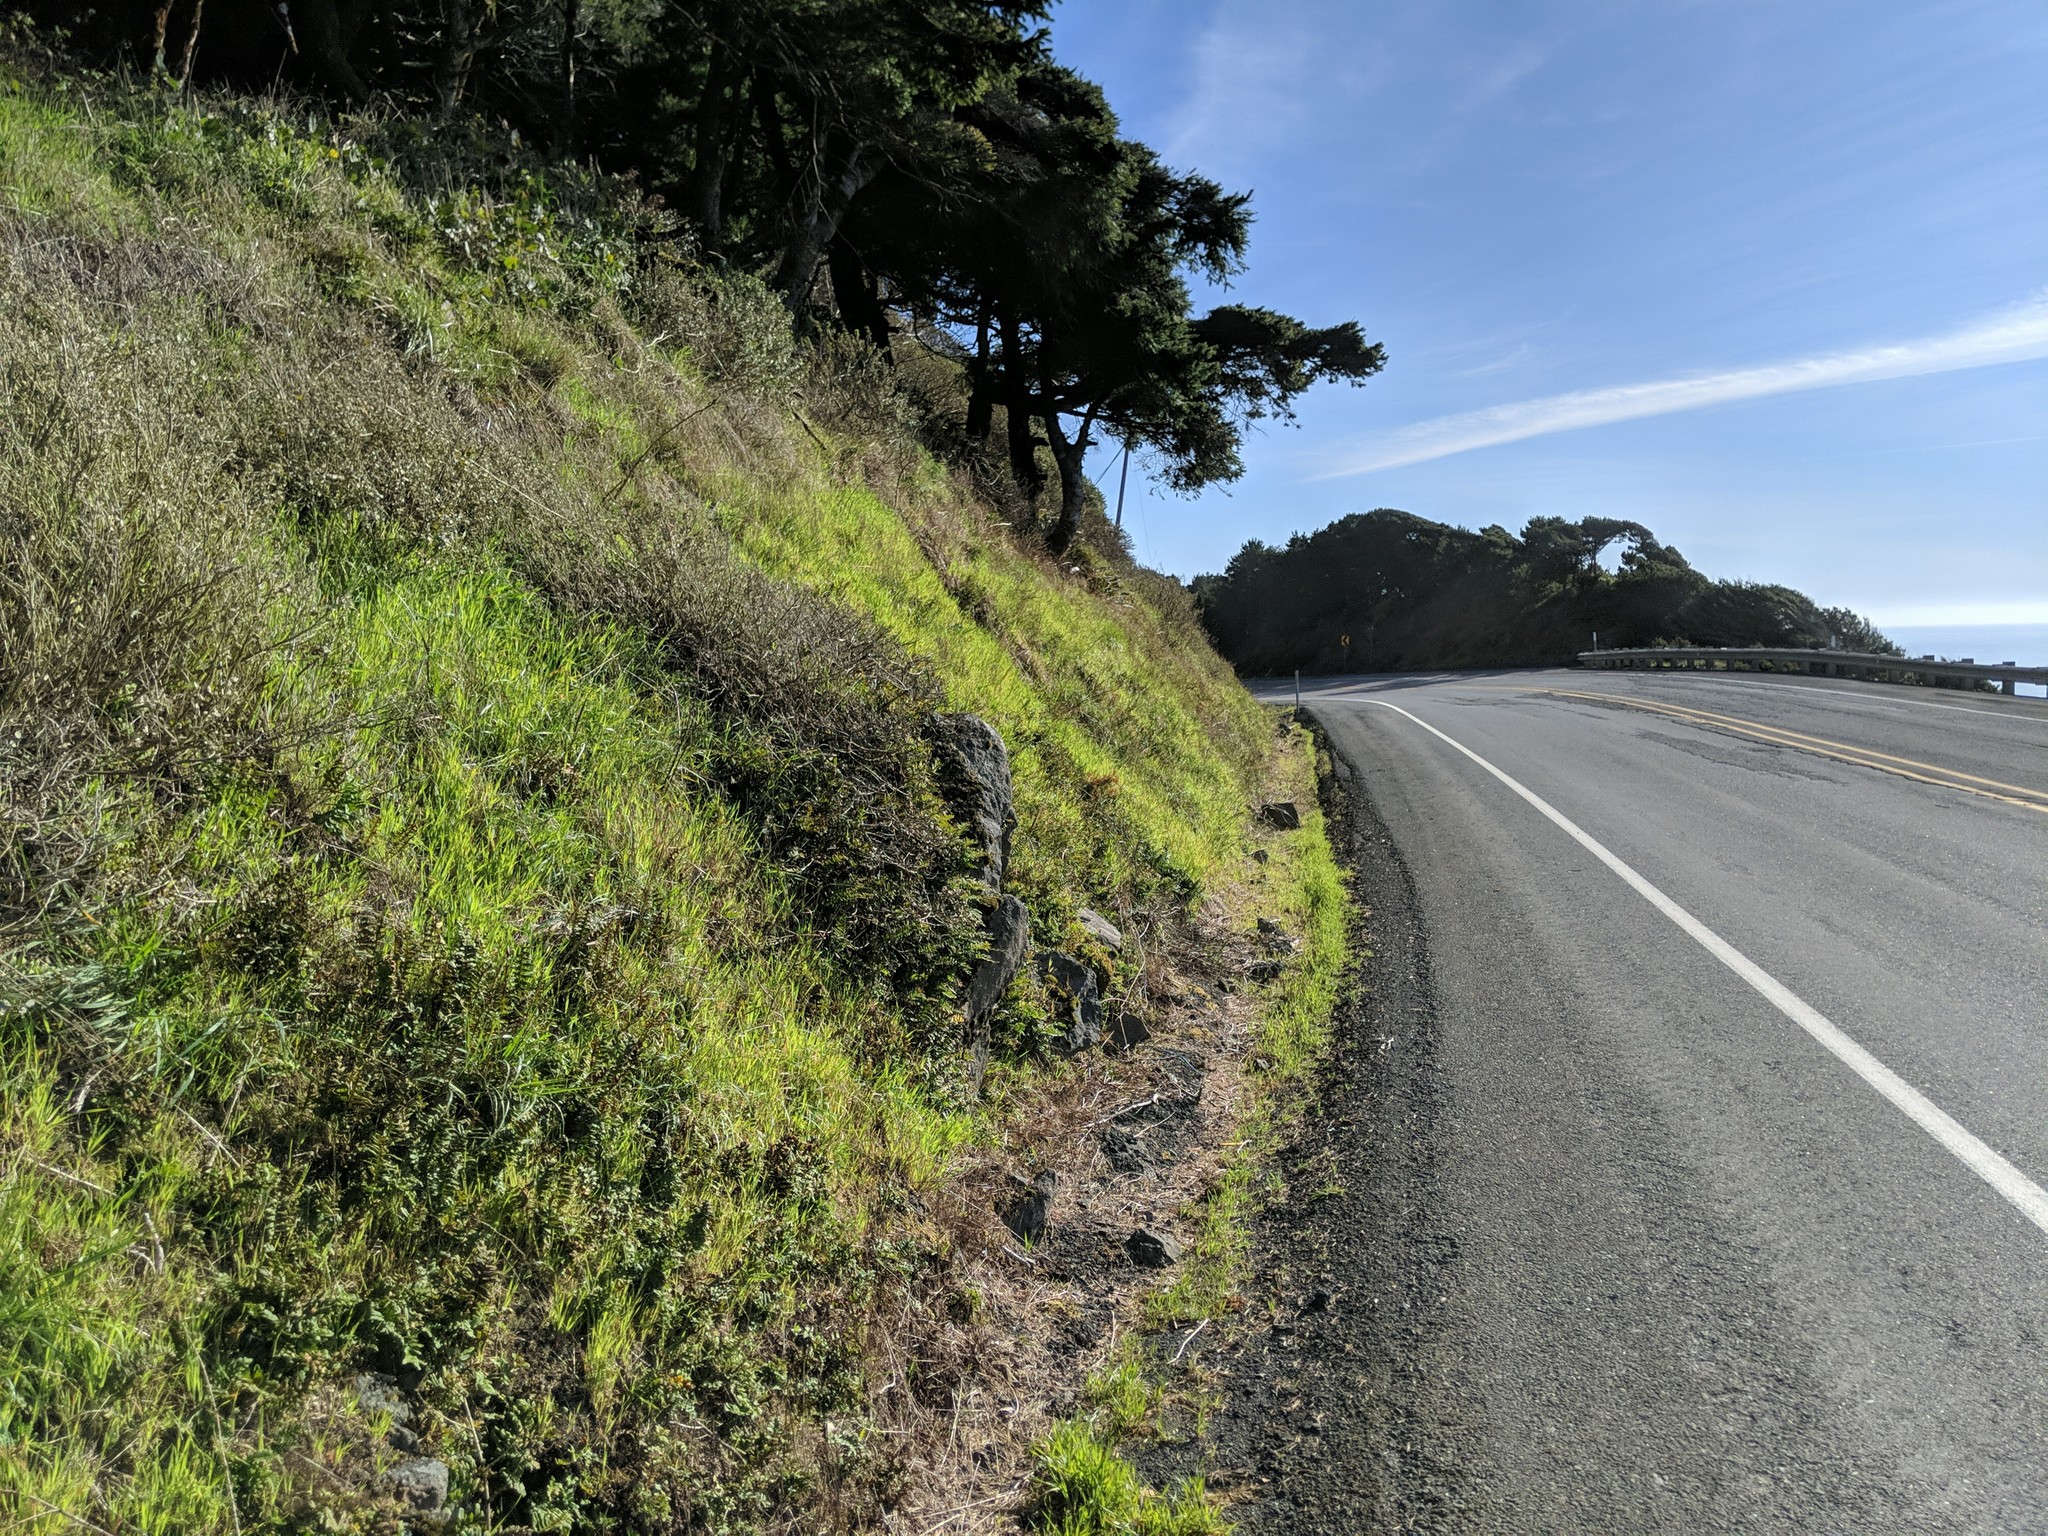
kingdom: Plantae
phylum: Tracheophyta
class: Polypodiopsida
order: Polypodiales
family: Polypodiaceae
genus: Polypodium
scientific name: Polypodium calirhiza
